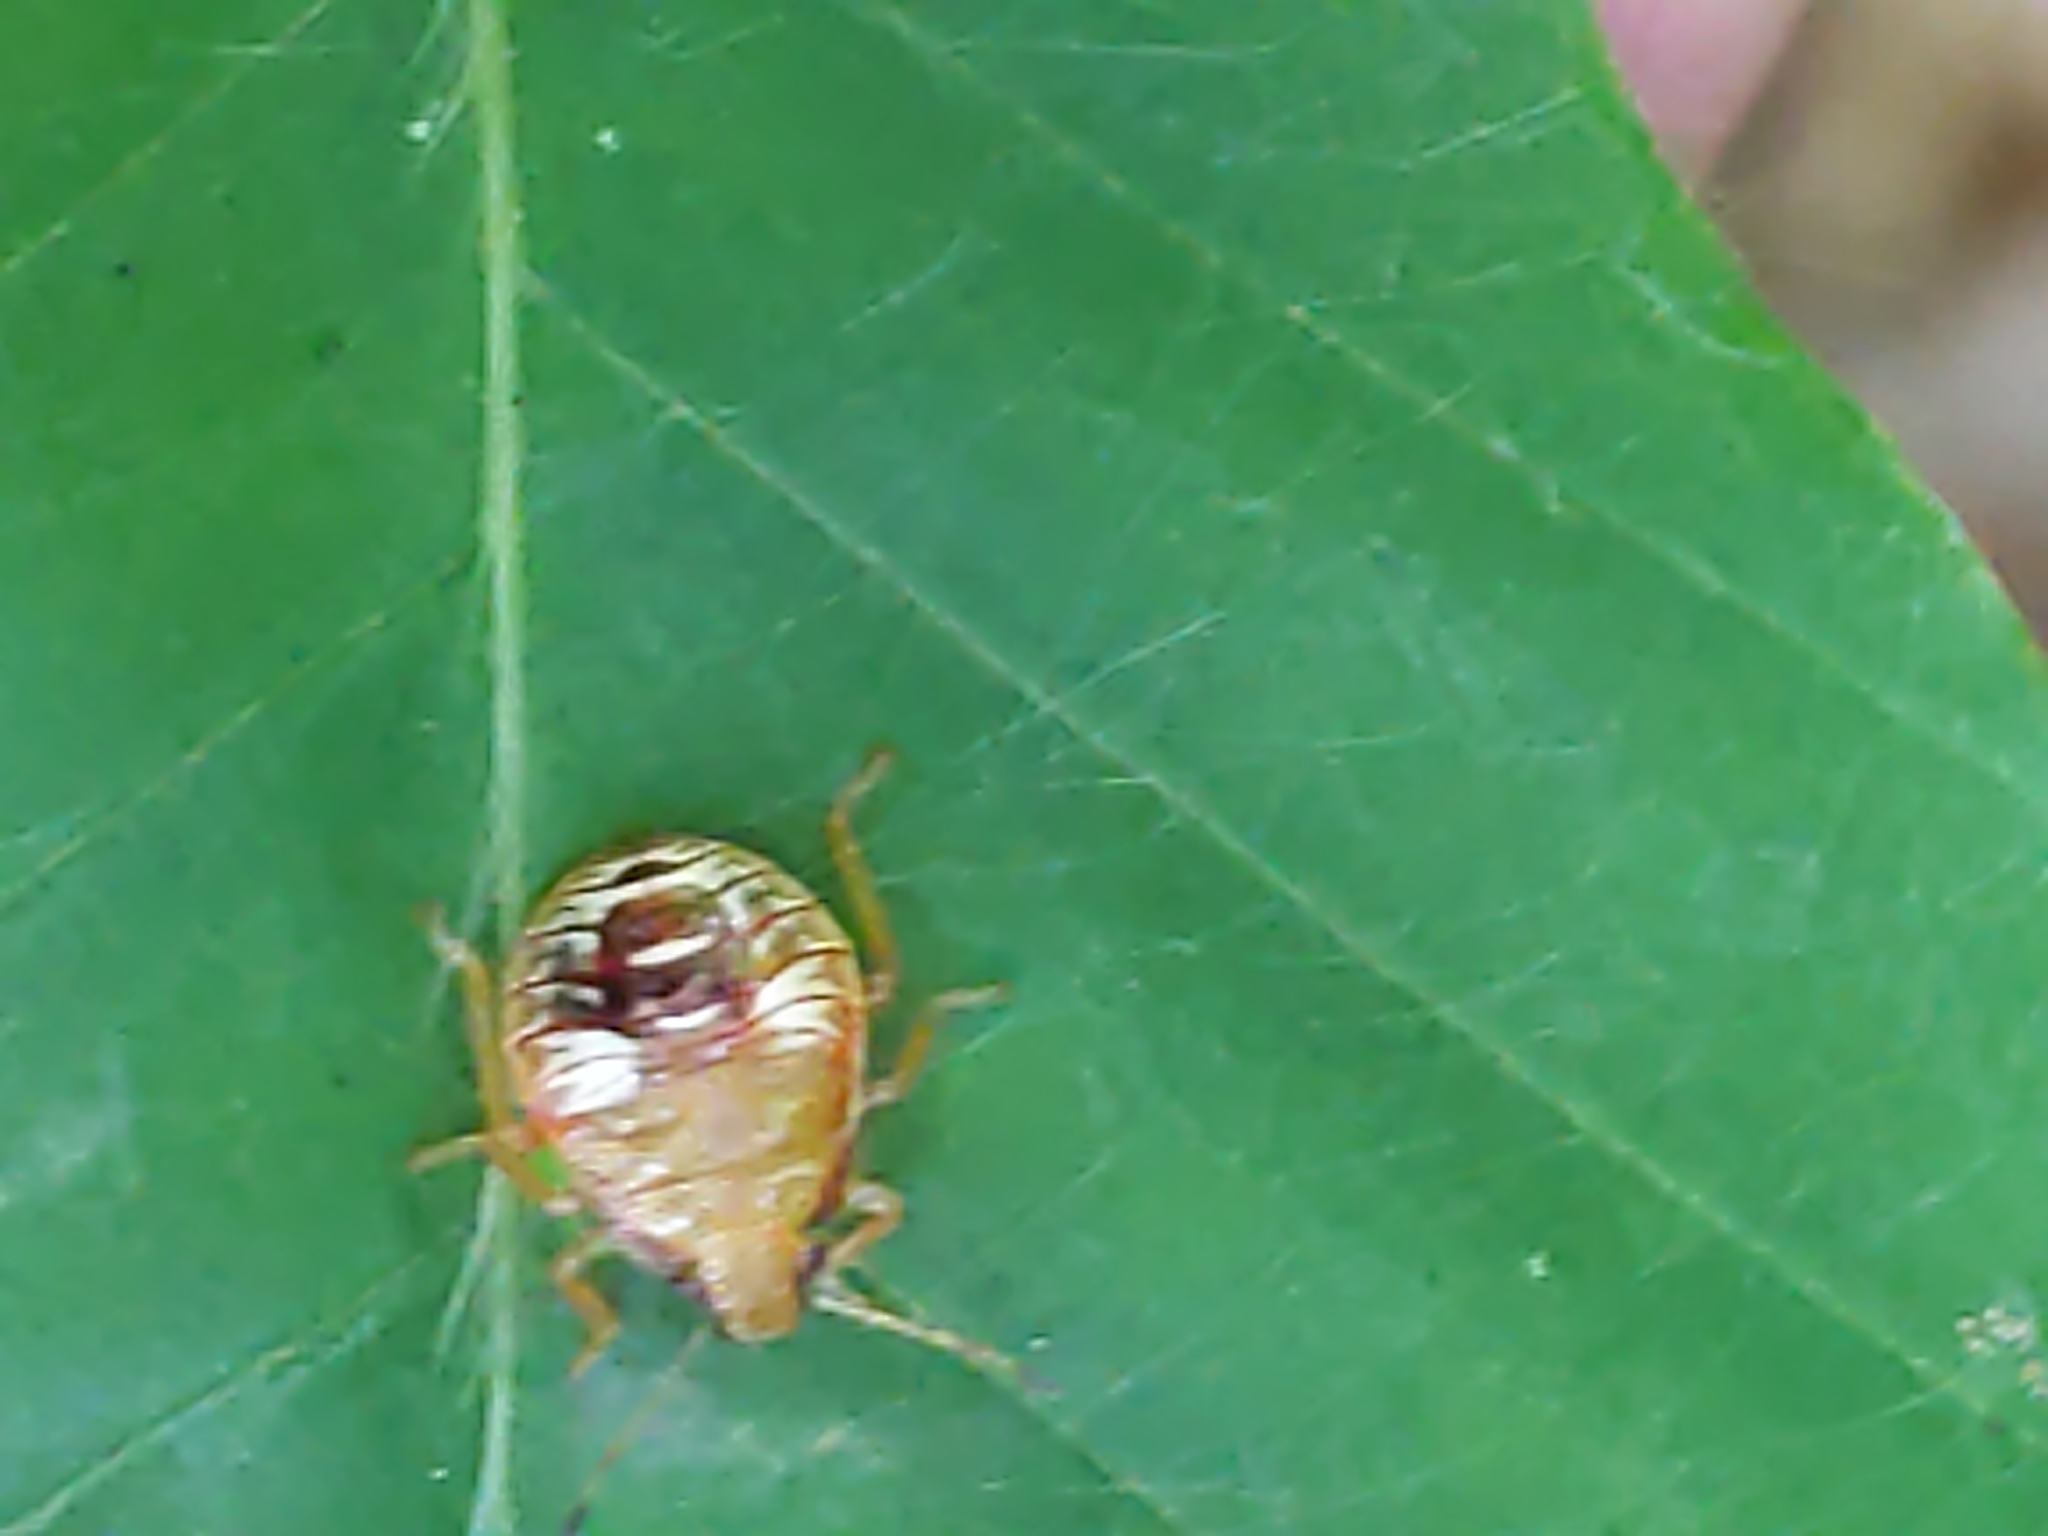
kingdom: Animalia
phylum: Arthropoda
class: Insecta
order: Hemiptera
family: Pentatomidae
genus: Podisus
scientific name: Podisus
